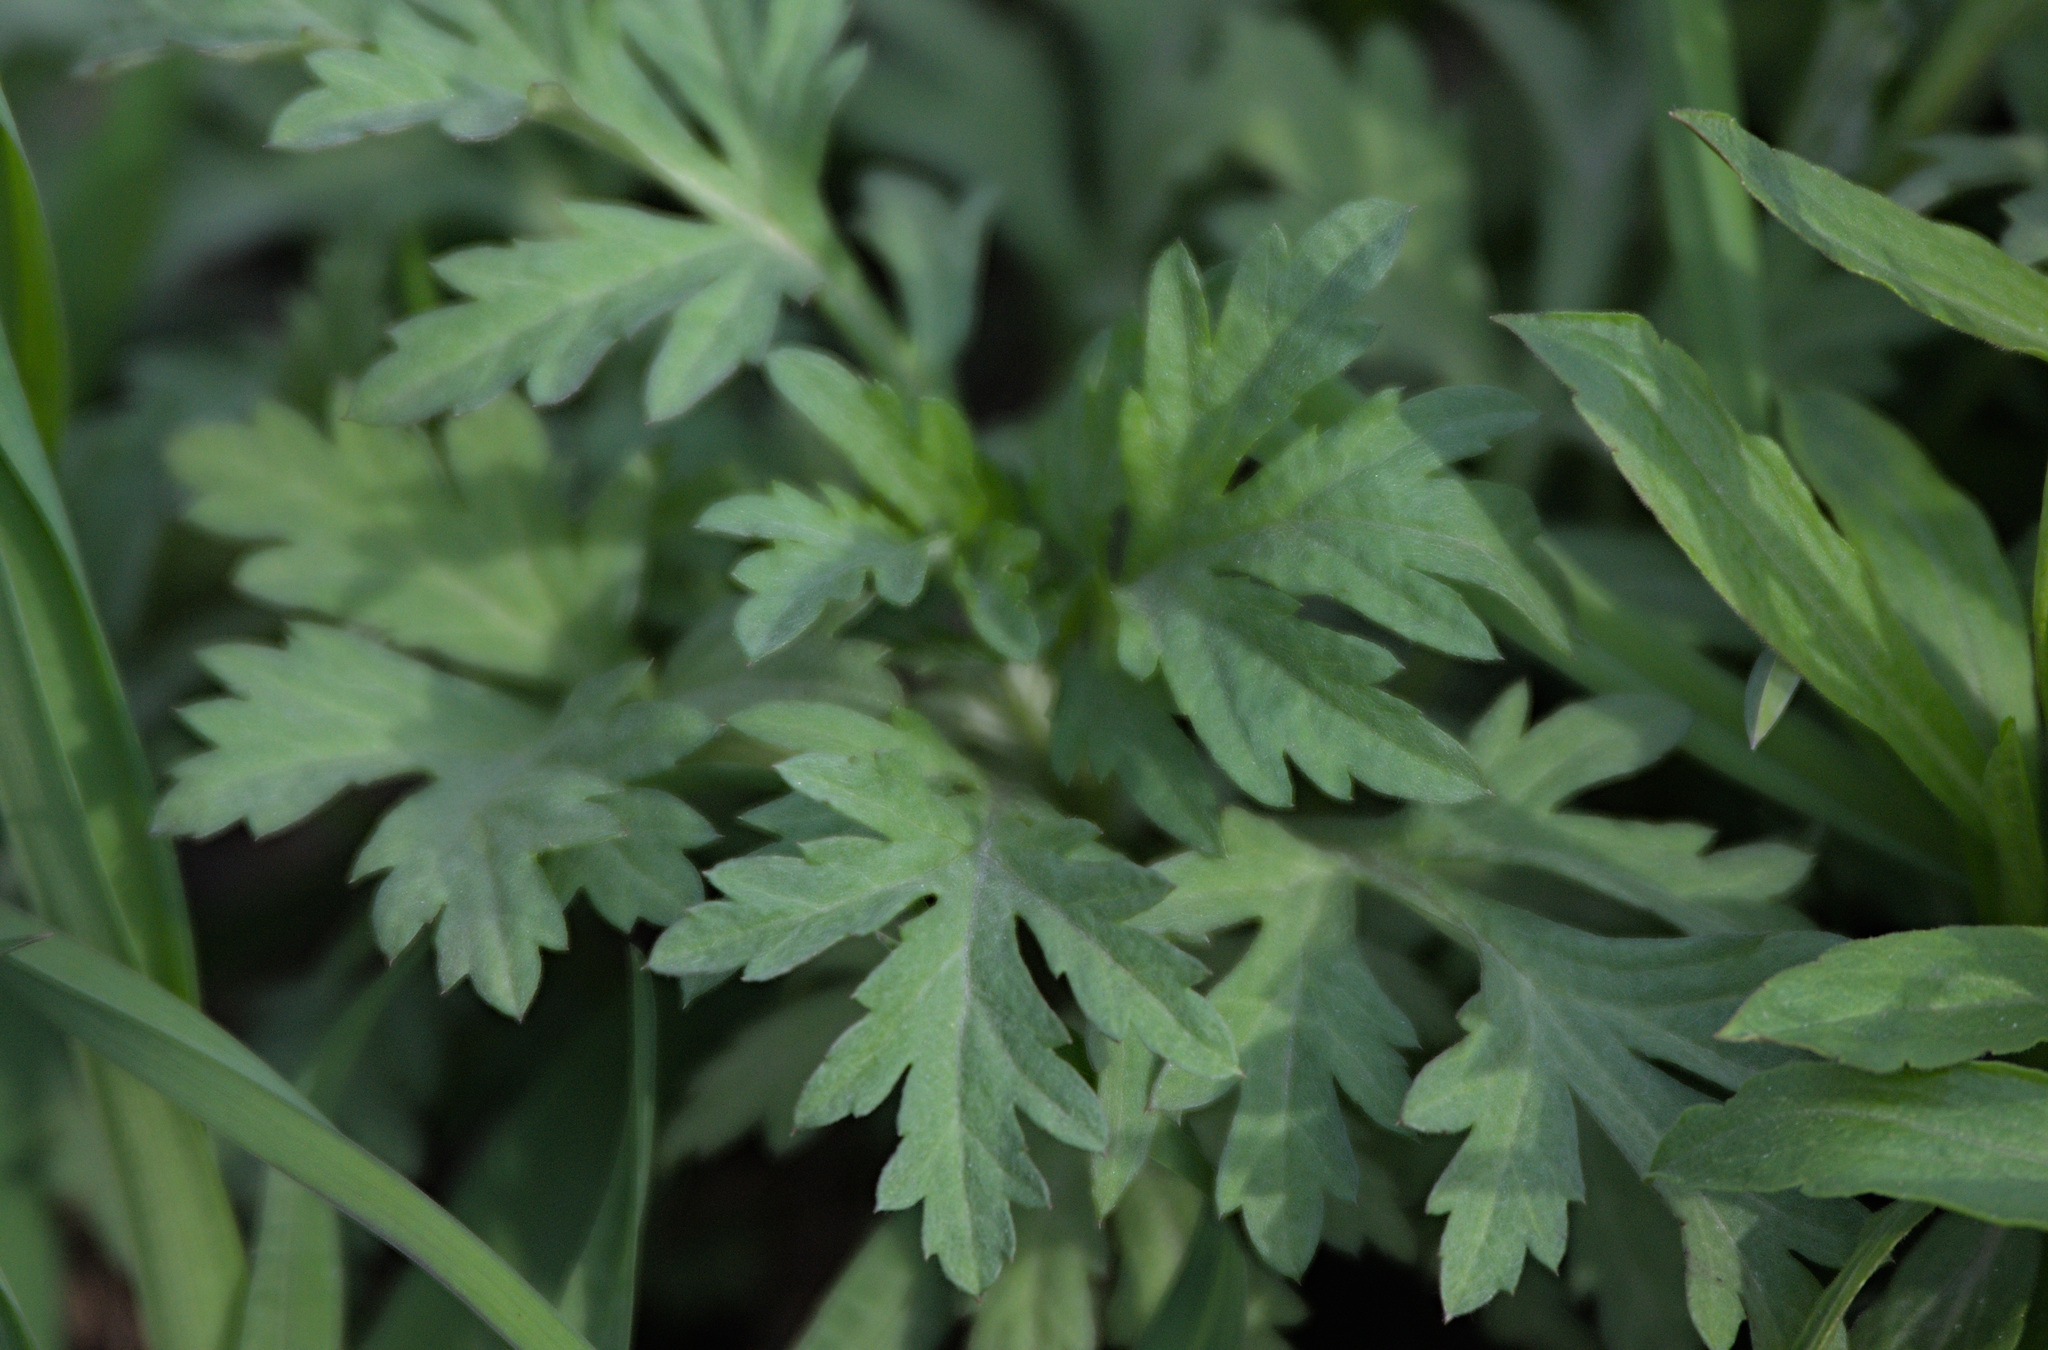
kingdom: Plantae
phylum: Tracheophyta
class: Magnoliopsida
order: Asterales
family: Asteraceae
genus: Artemisia
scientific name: Artemisia vulgaris
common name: Mugwort
